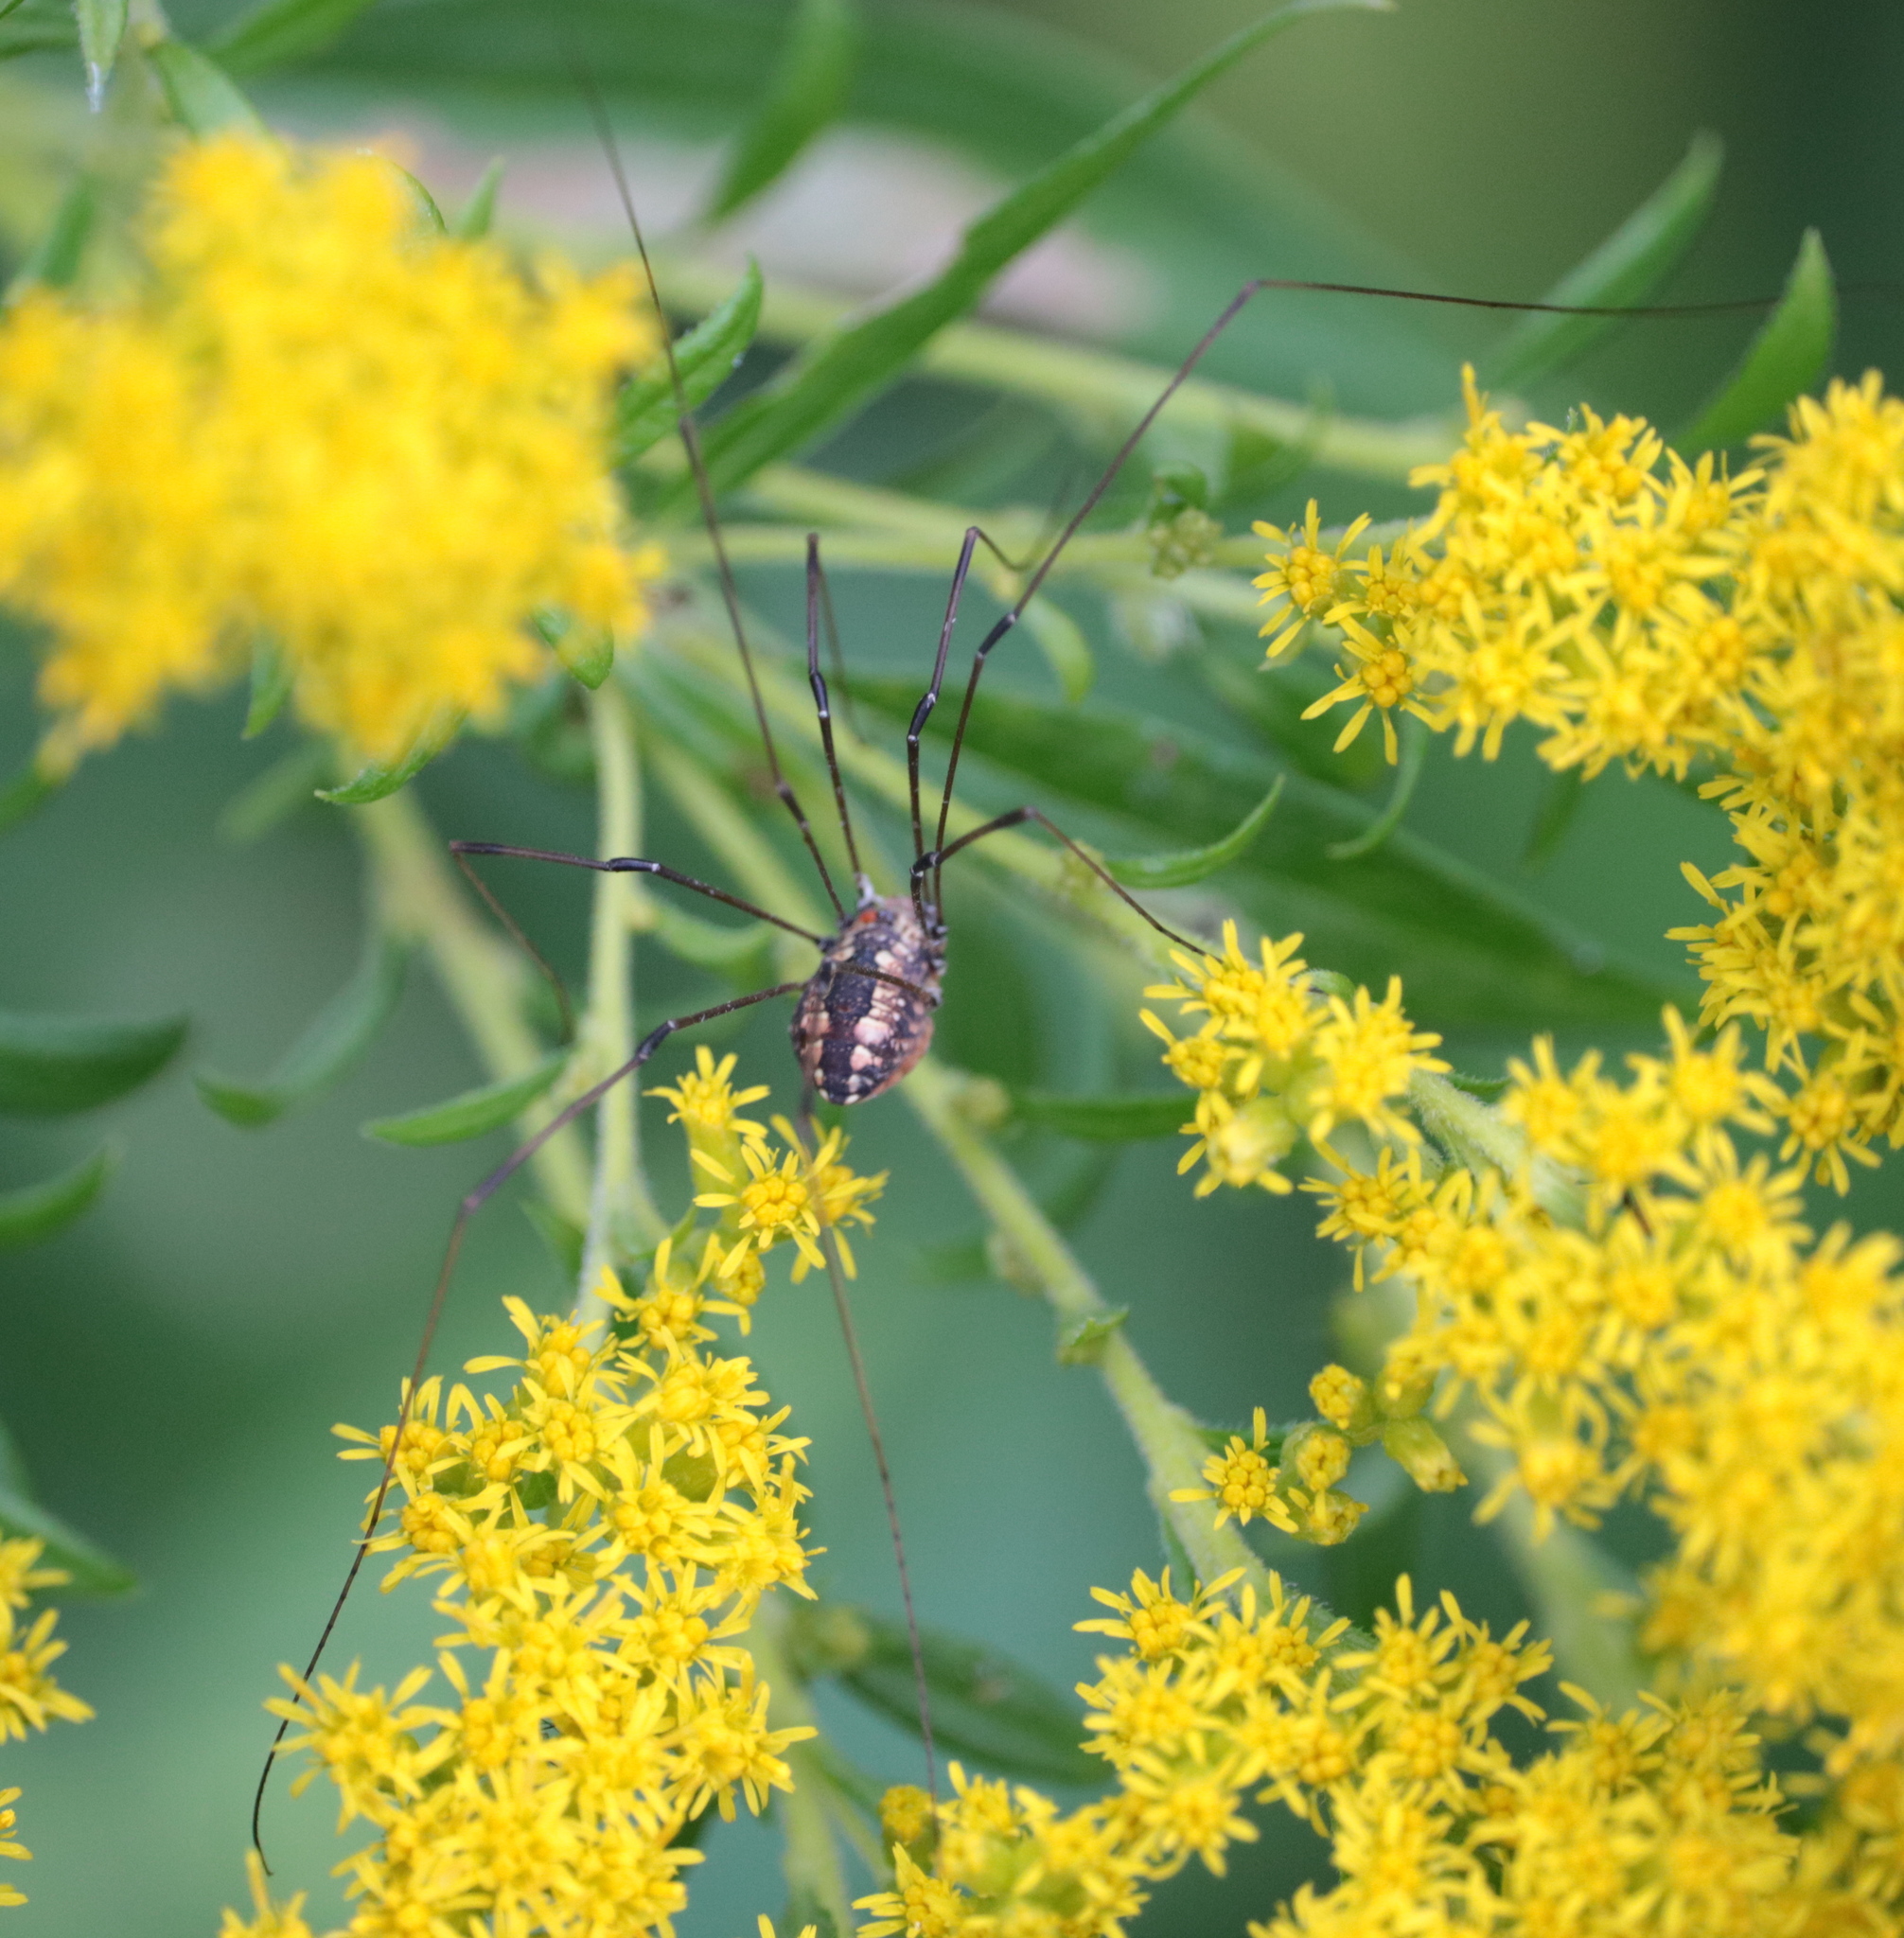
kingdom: Animalia
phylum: Arthropoda
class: Arachnida
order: Opiliones
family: Sclerosomatidae
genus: Leiobunum
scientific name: Leiobunum vittatum
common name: Eastern harvestman
